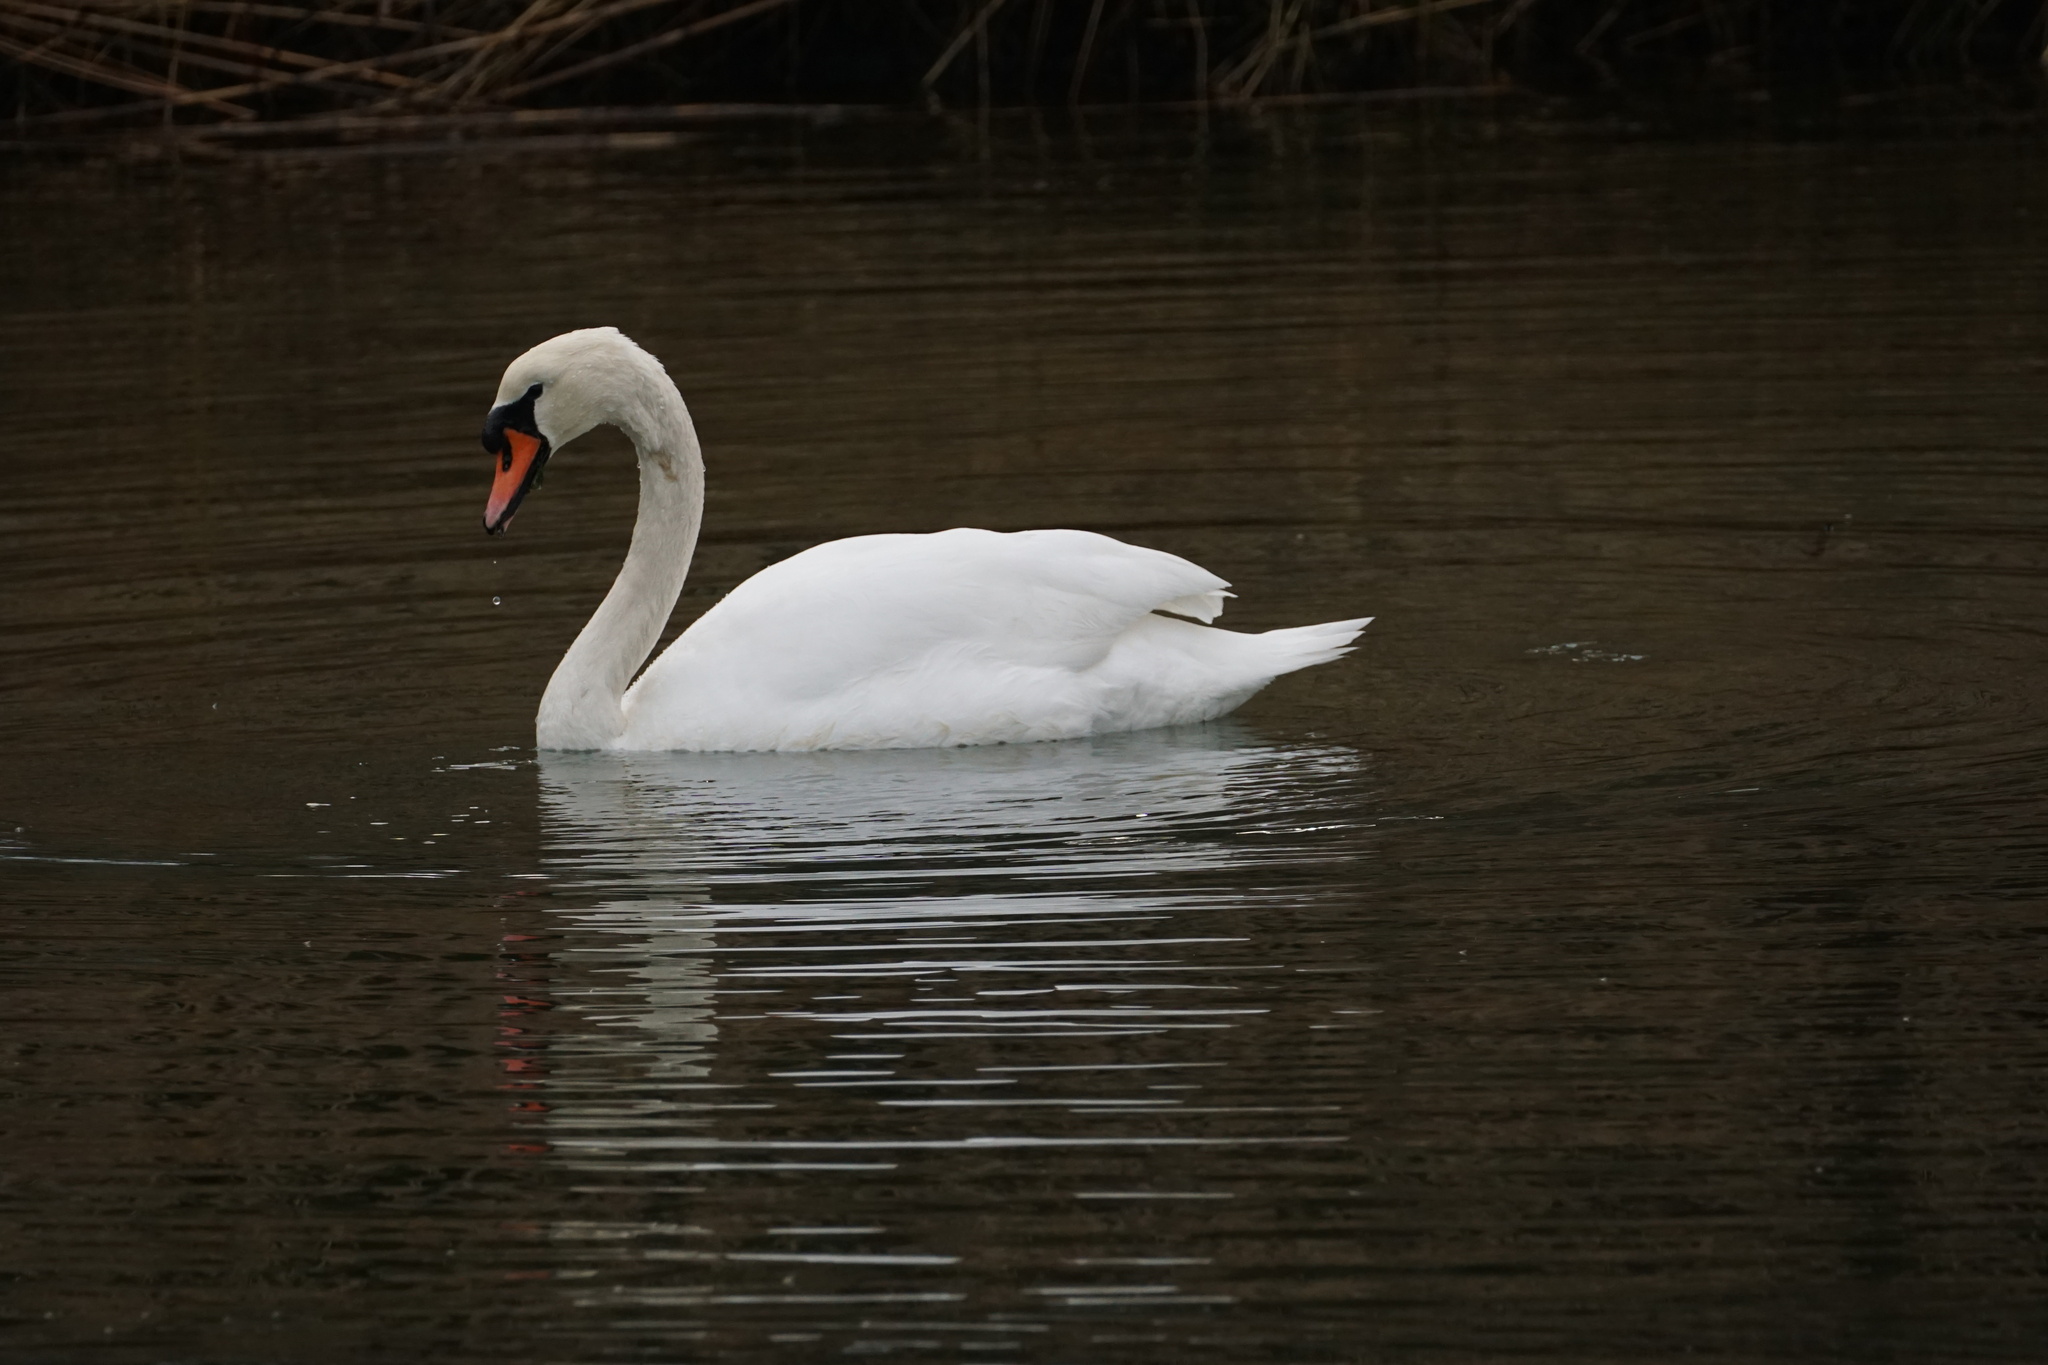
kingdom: Animalia
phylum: Chordata
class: Aves
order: Anseriformes
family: Anatidae
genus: Cygnus
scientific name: Cygnus olor
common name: Mute swan
